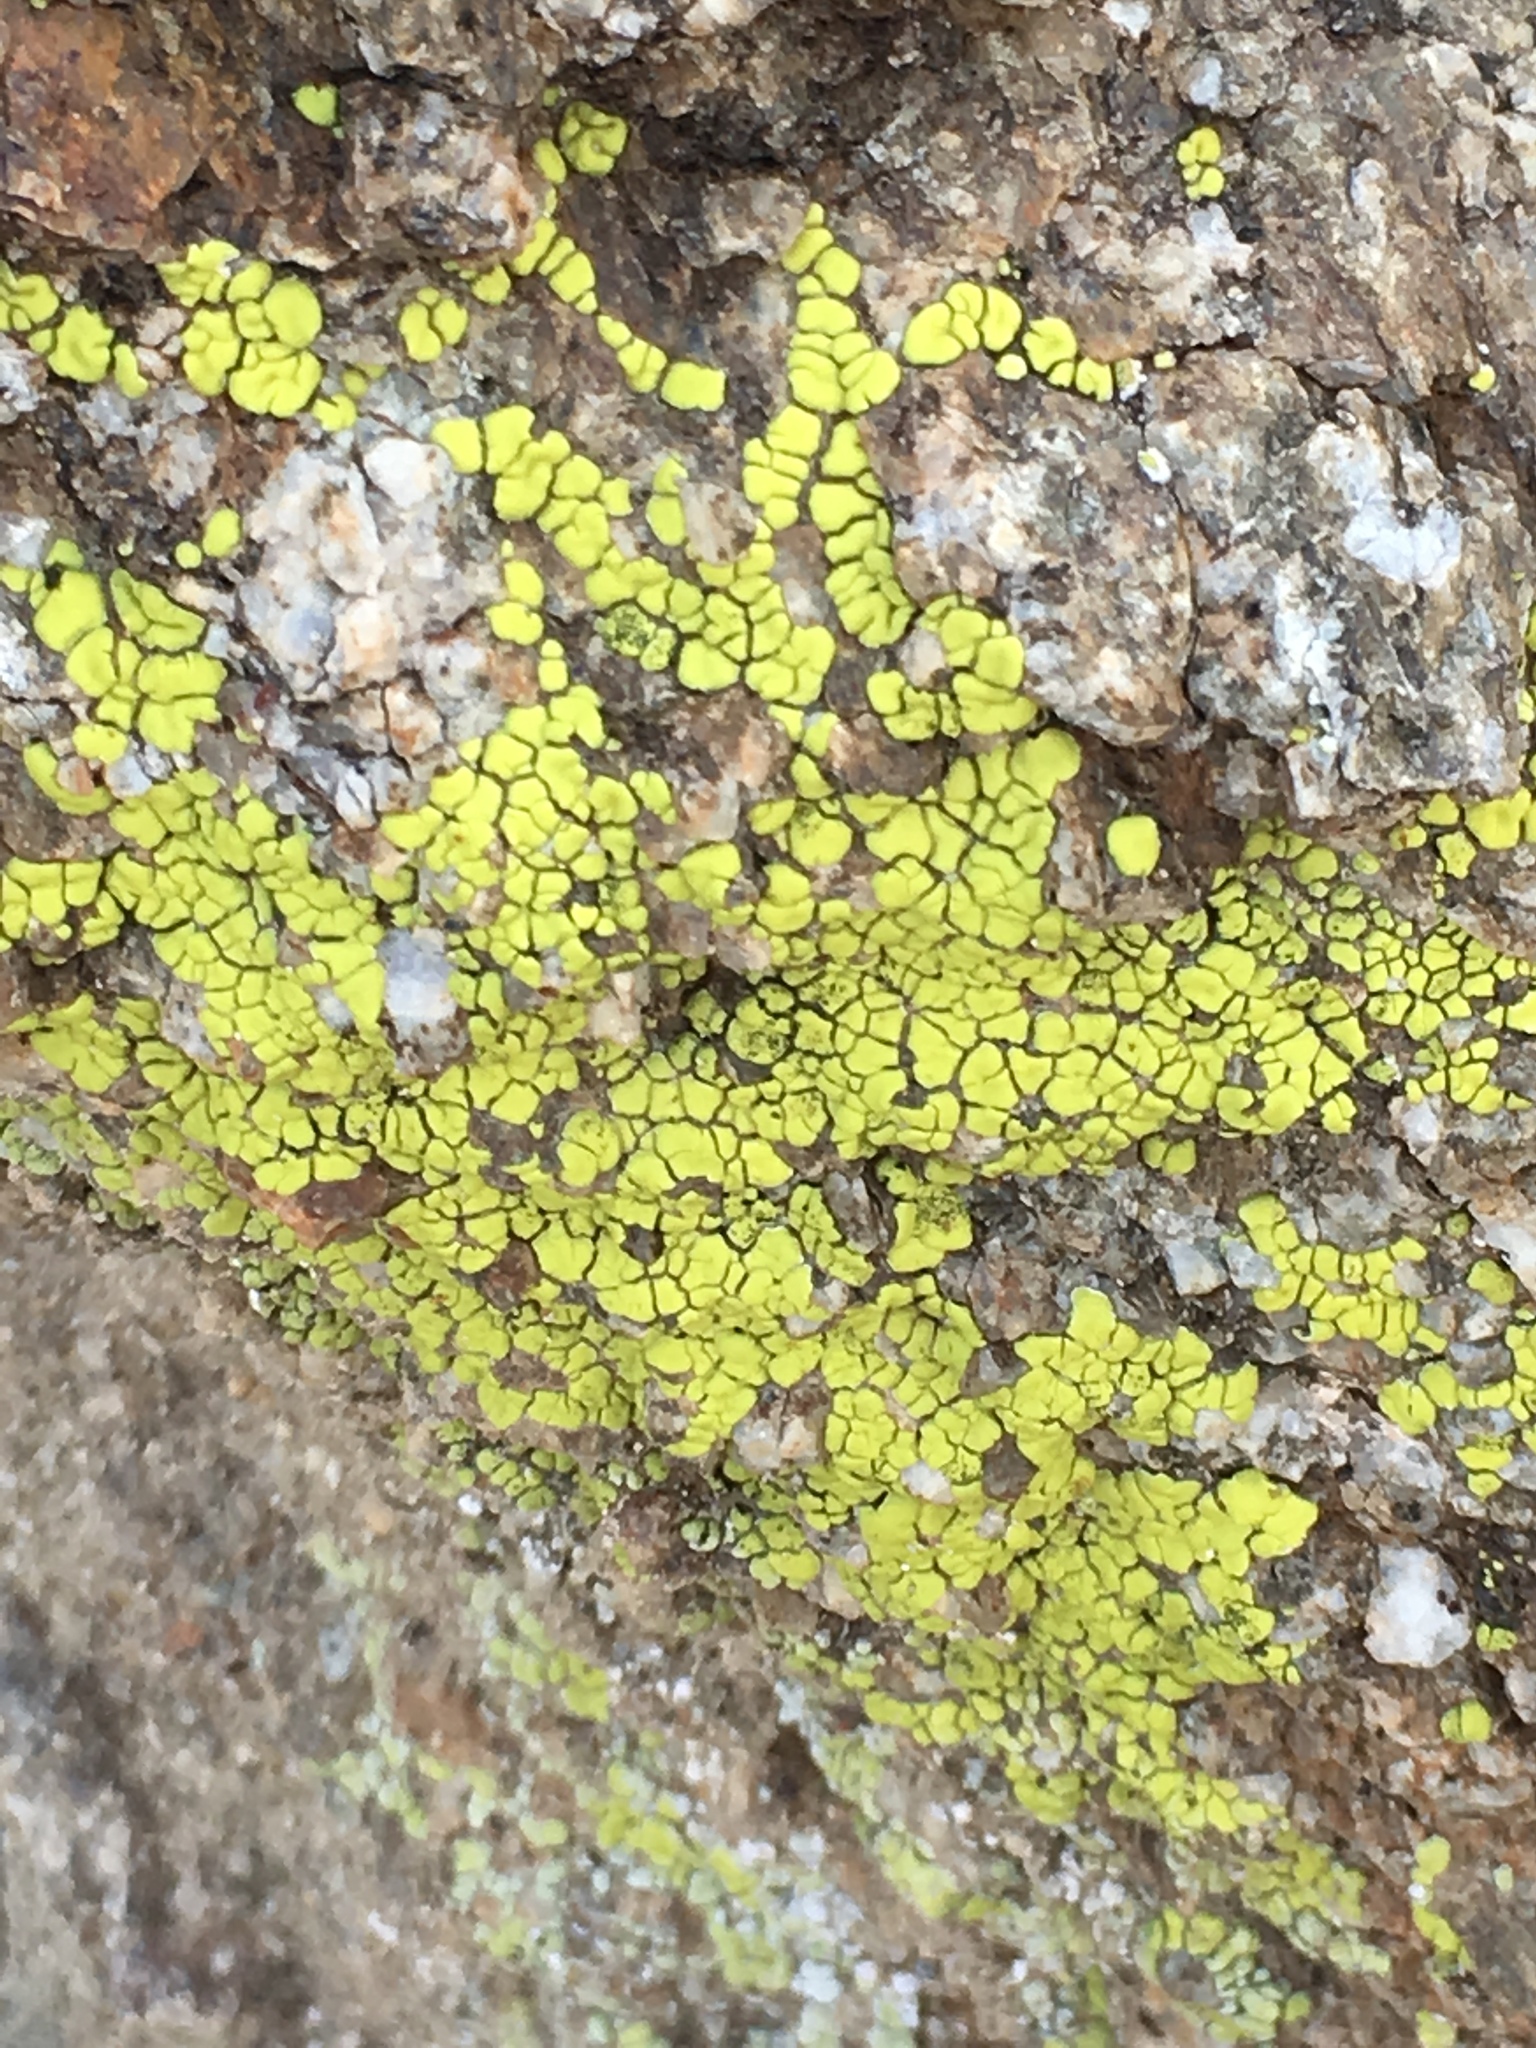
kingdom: Fungi
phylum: Ascomycota
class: Lecanoromycetes
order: Acarosporales
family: Acarosporaceae
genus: Acarospora
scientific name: Acarospora socialis
